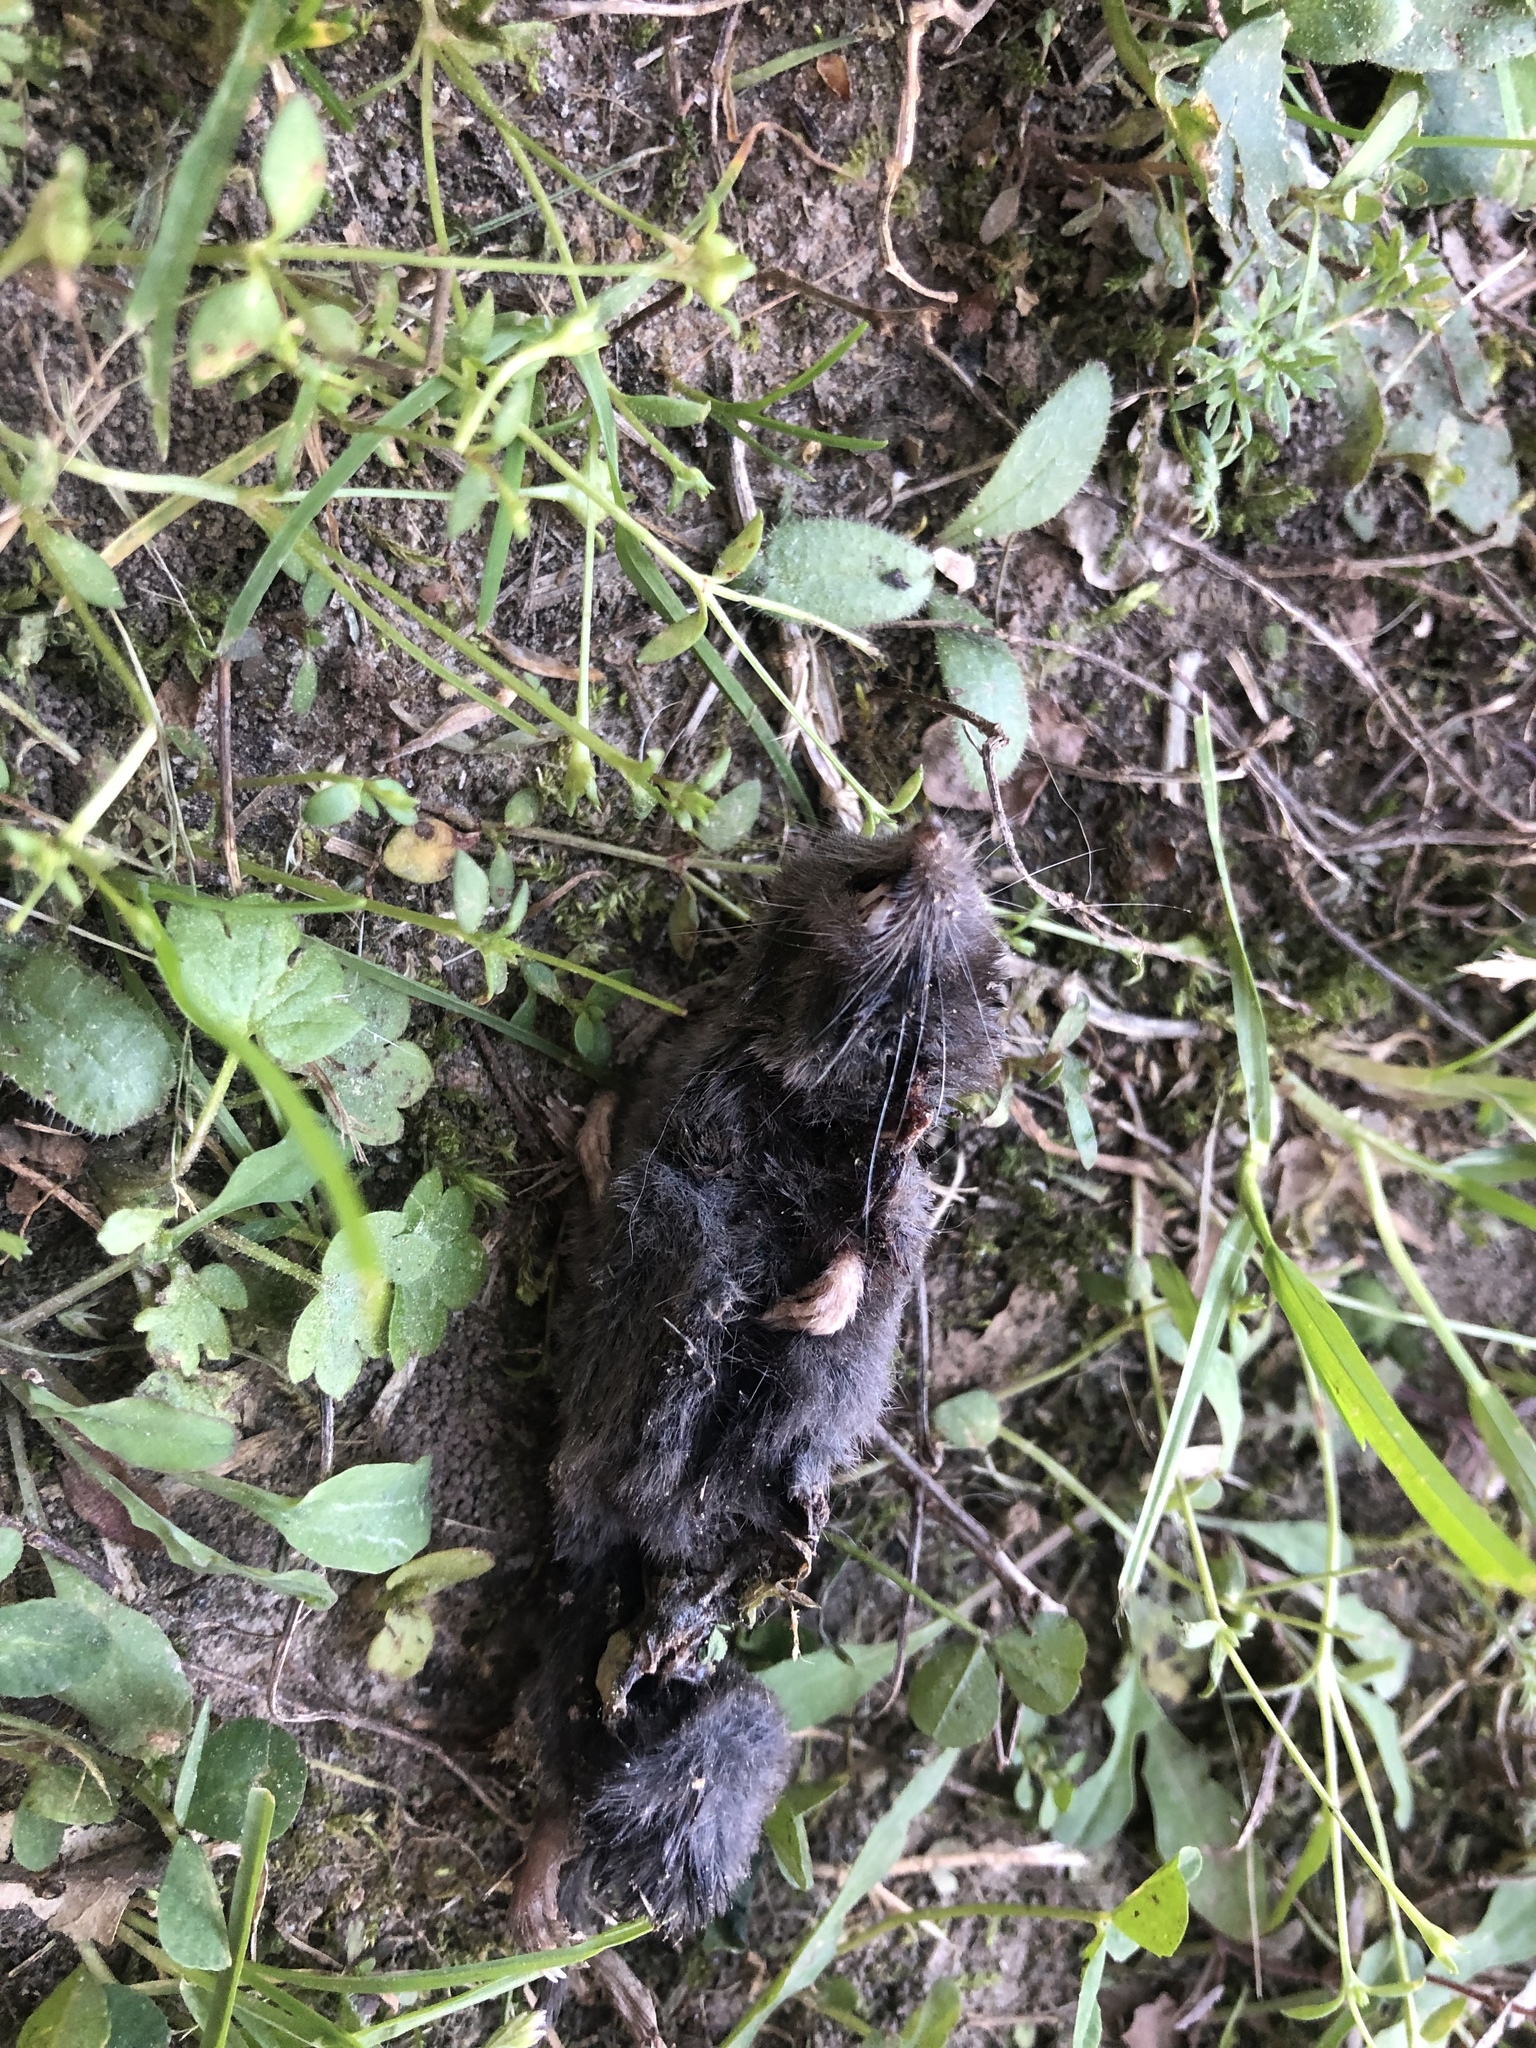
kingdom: Animalia
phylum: Chordata
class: Mammalia
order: Soricomorpha
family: Soricidae
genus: Blarina
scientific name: Blarina carolinensis
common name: Southern short-tailed shrew
